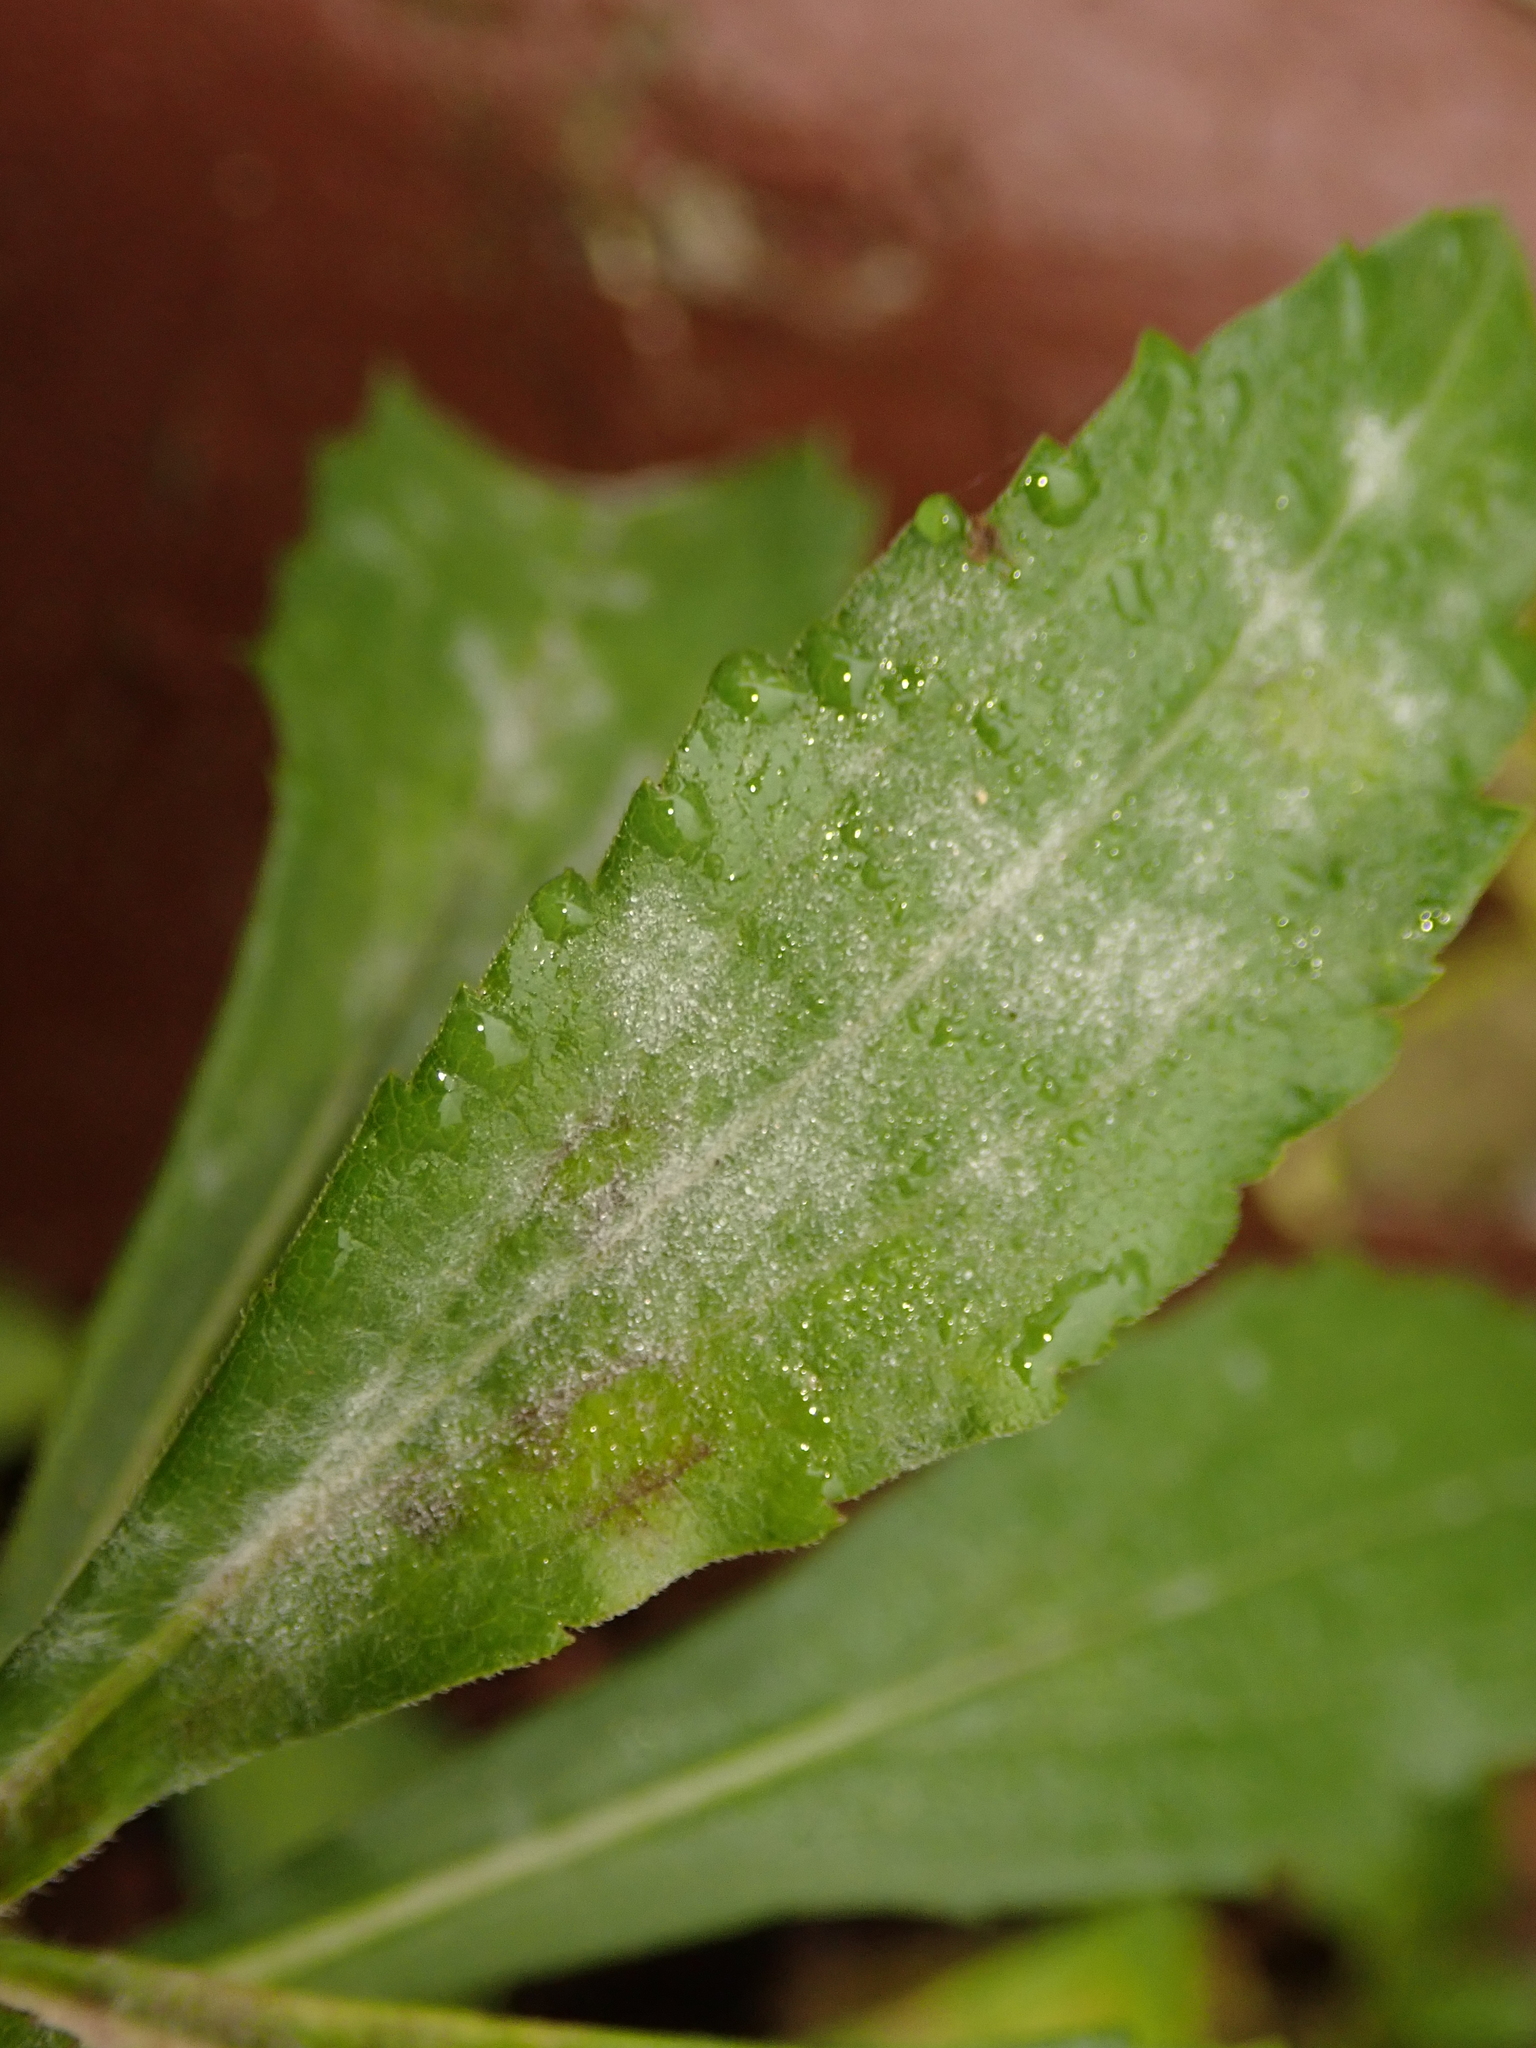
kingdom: Fungi
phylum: Ascomycota
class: Leotiomycetes
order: Helotiales
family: Erysiphaceae
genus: Golovinomyces
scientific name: Golovinomyces asterum
